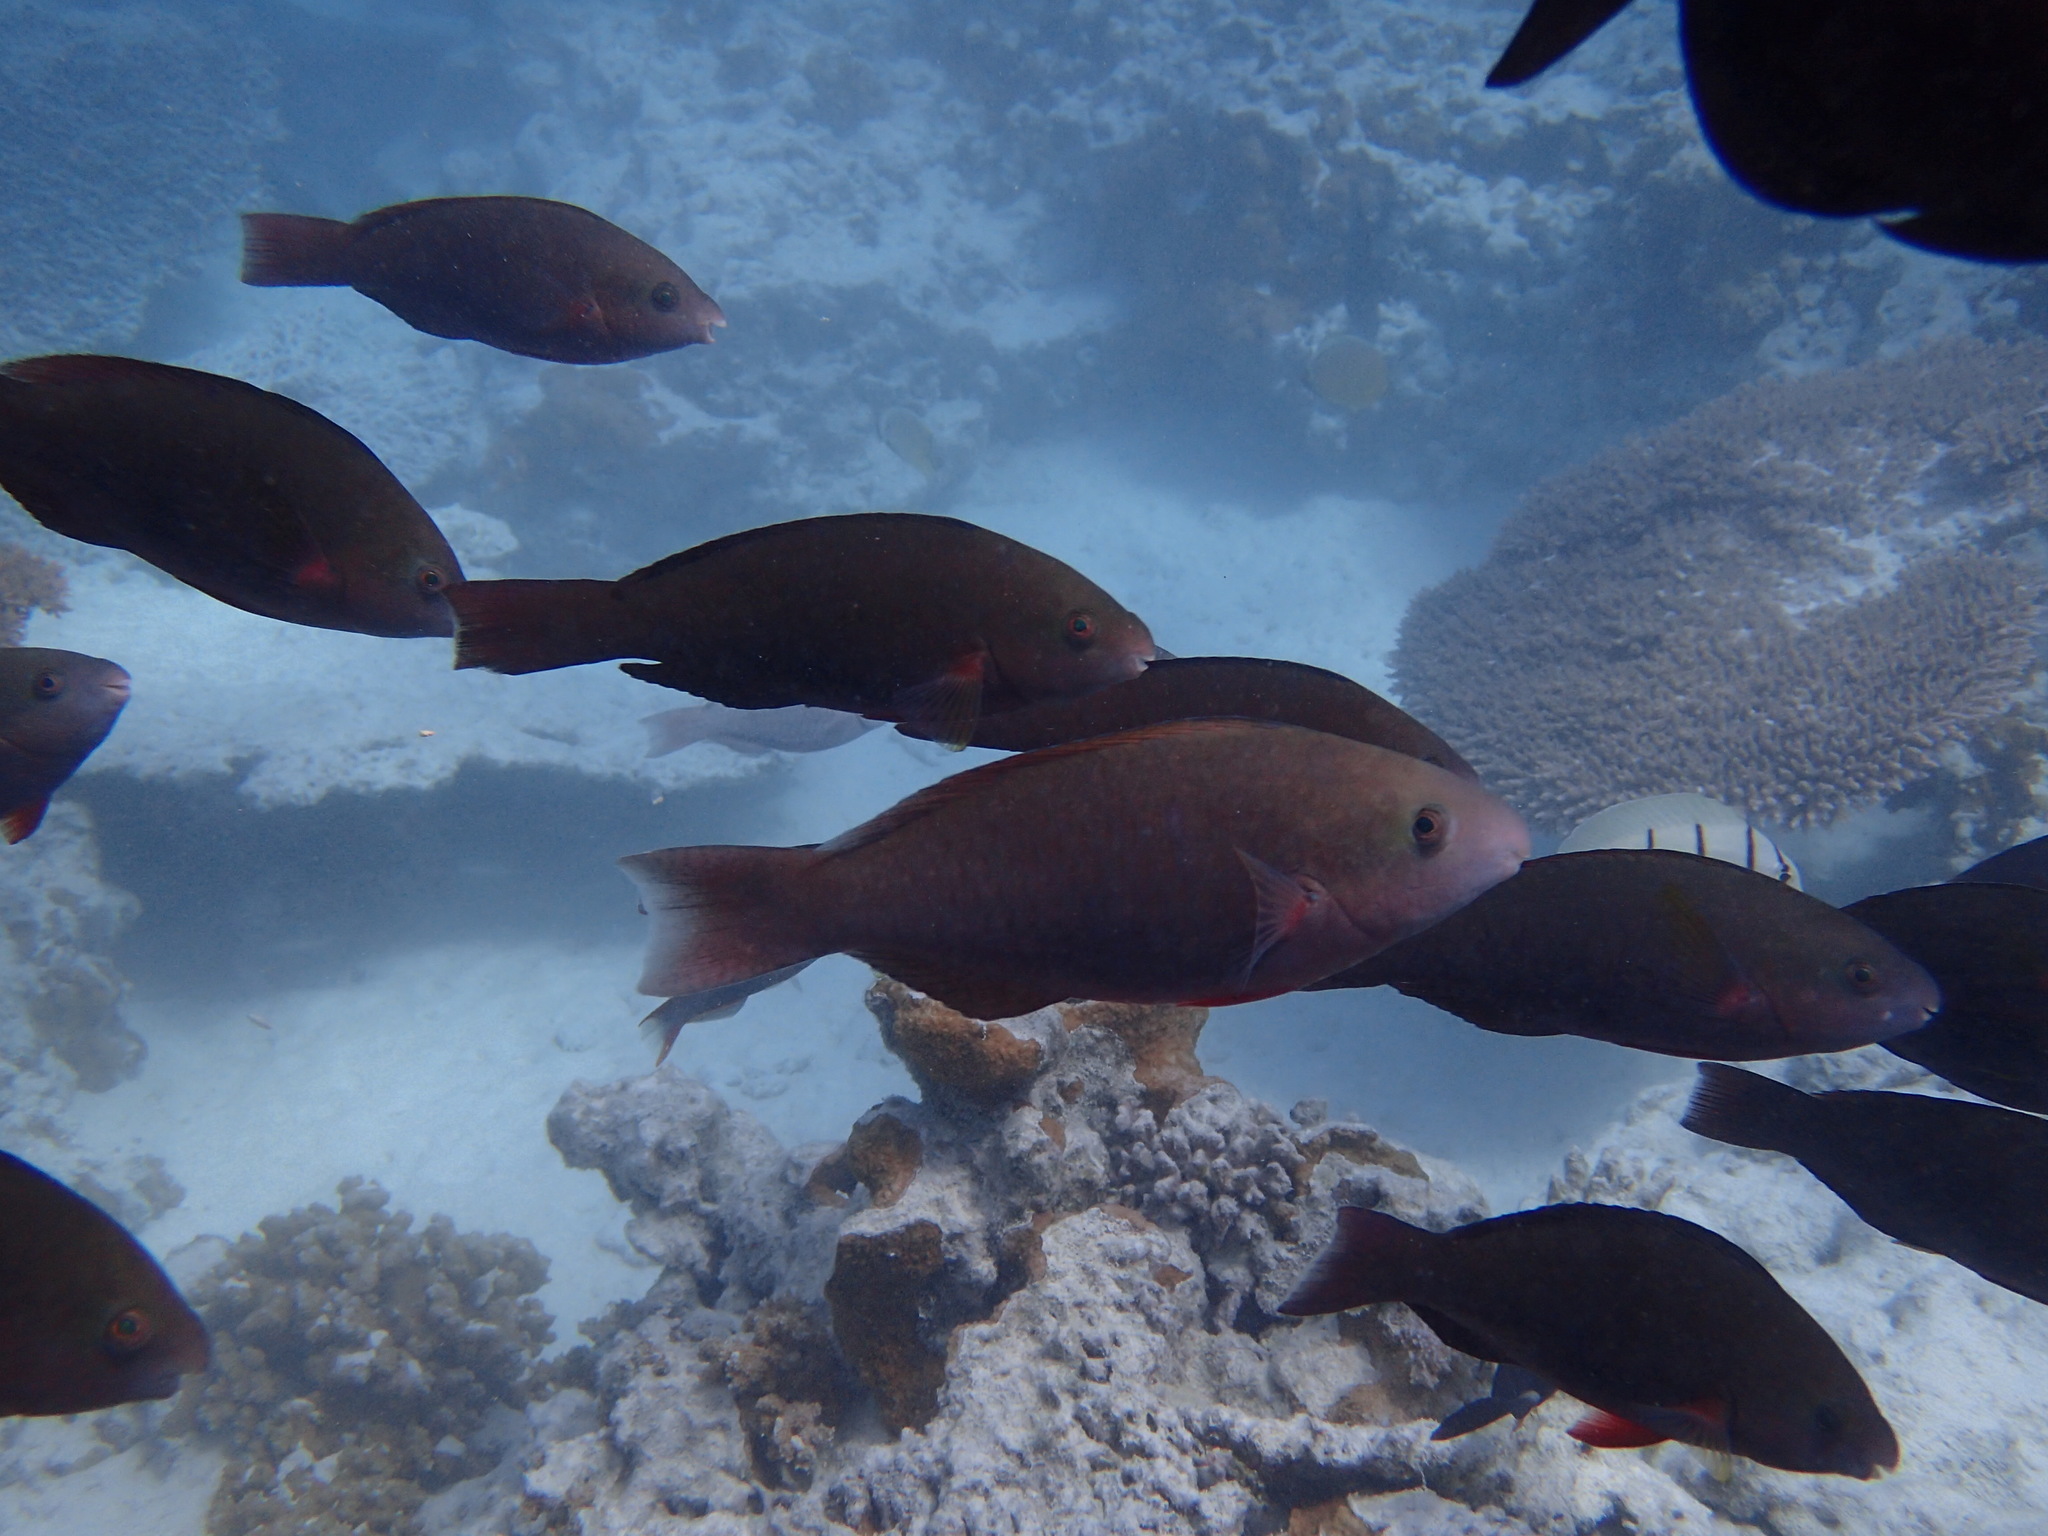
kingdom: Animalia
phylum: Chordata
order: Perciformes
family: Scaridae
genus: Scarus
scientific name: Scarus psittacus
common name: Palenose parrotfish
